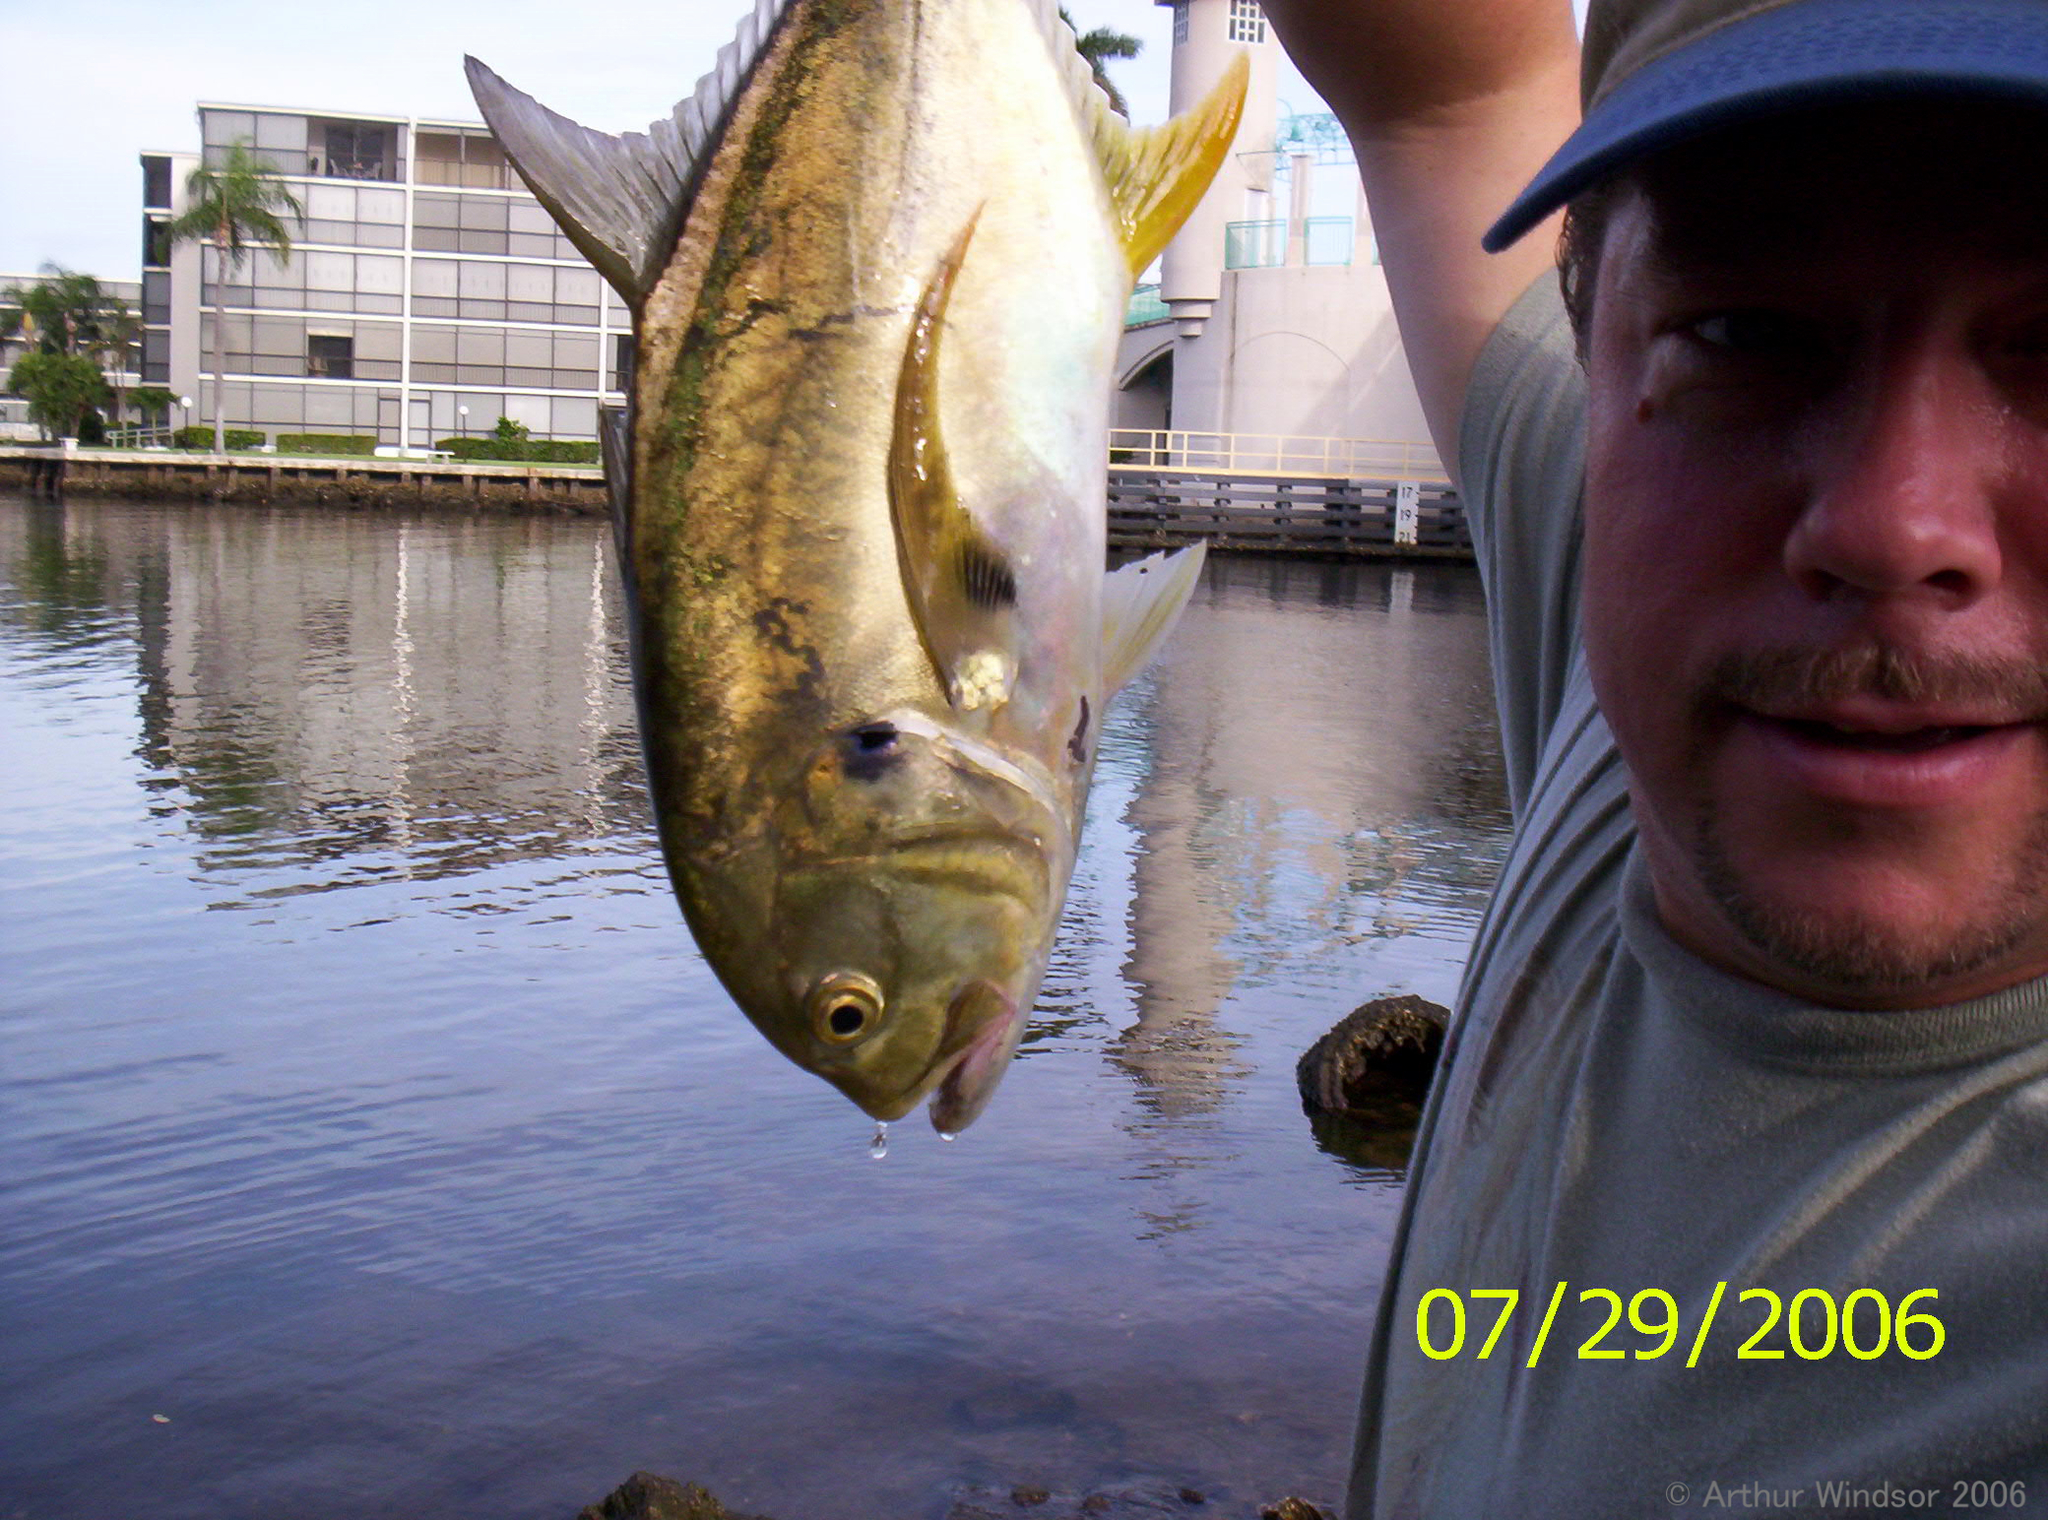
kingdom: Animalia
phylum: Chordata
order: Perciformes
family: Carangidae
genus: Caranx
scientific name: Caranx hippos
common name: Common jack
